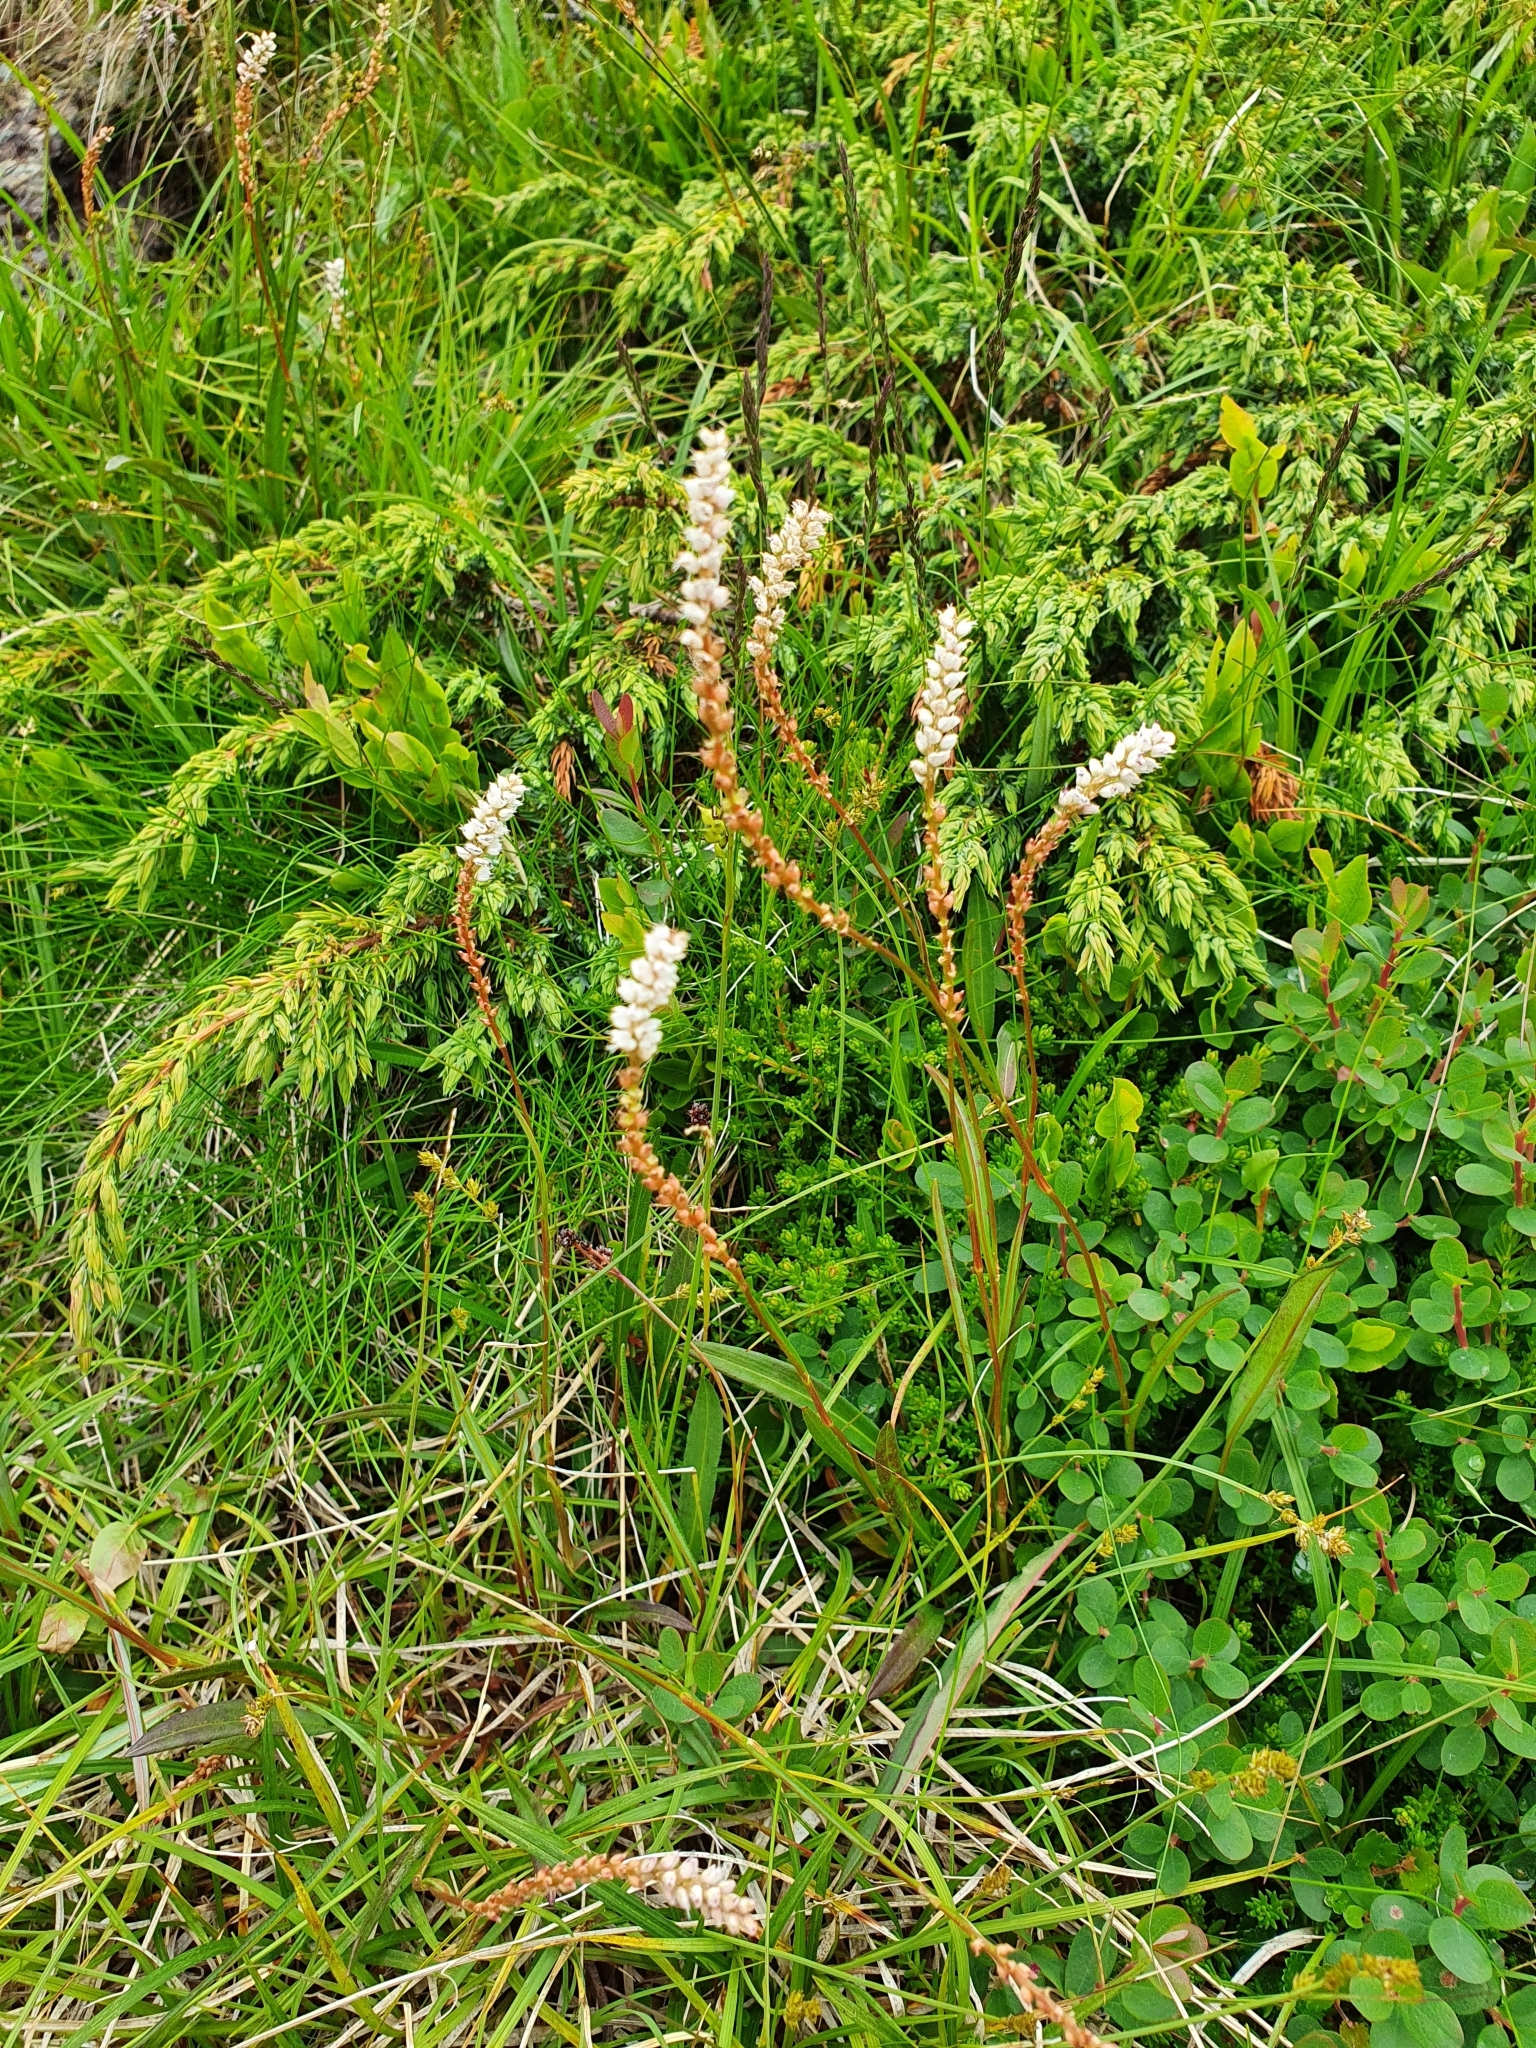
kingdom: Plantae
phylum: Tracheophyta
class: Magnoliopsida
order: Caryophyllales
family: Polygonaceae
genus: Bistorta
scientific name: Bistorta vivipara
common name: Alpine bistort
